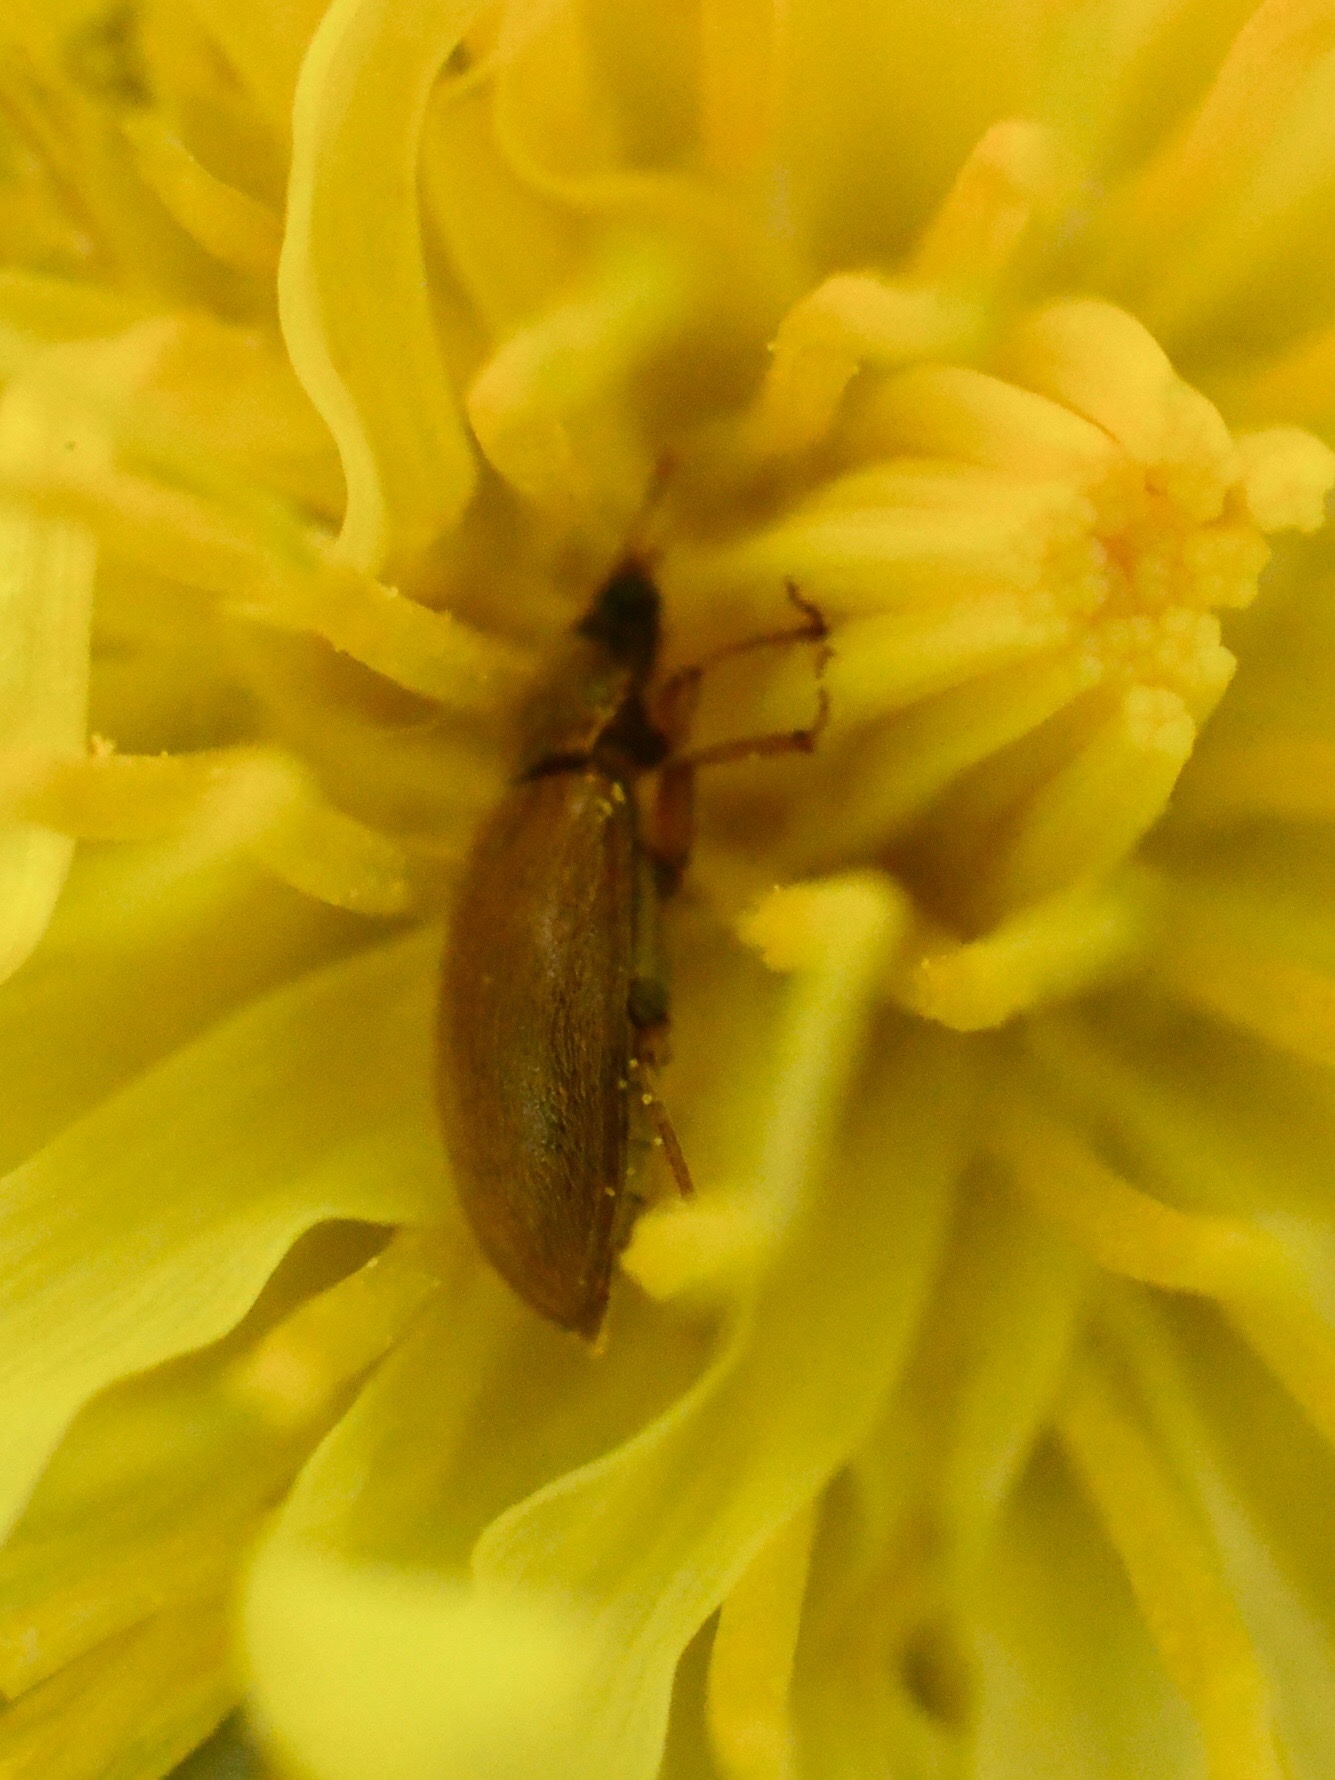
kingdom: Animalia
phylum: Arthropoda
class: Insecta
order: Coleoptera
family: Byturidae
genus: Byturus
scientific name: Byturus
